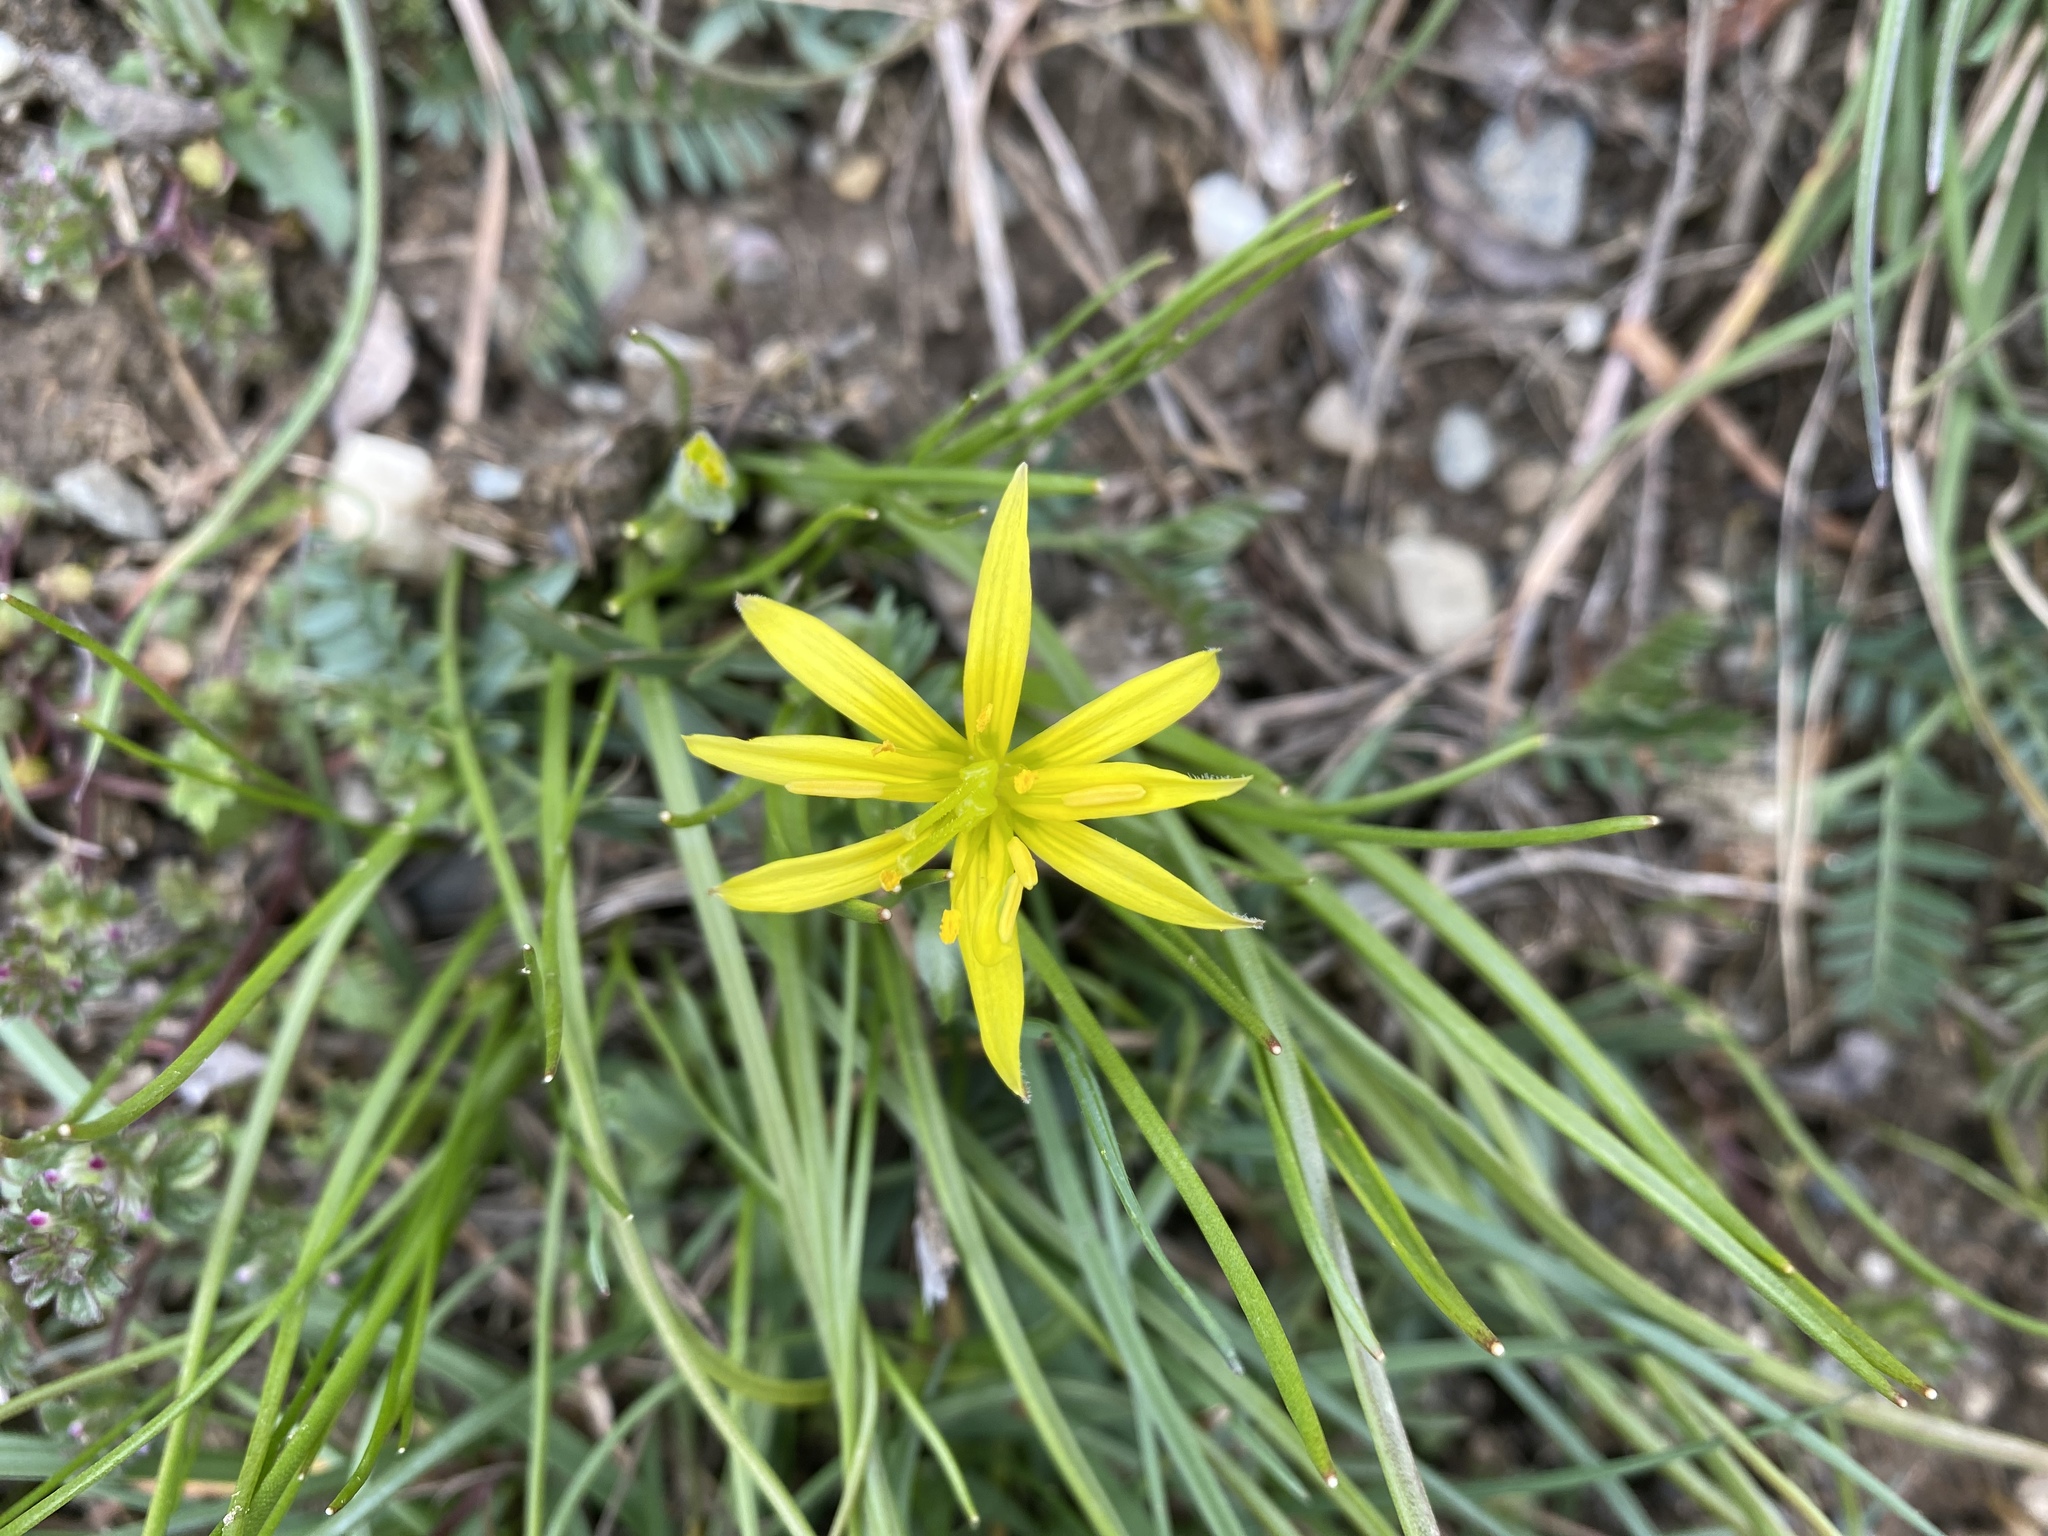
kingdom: Plantae
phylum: Tracheophyta
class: Liliopsida
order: Liliales
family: Liliaceae
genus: Gagea
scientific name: Gagea lutea
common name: Yellow star-of-bethlehem
